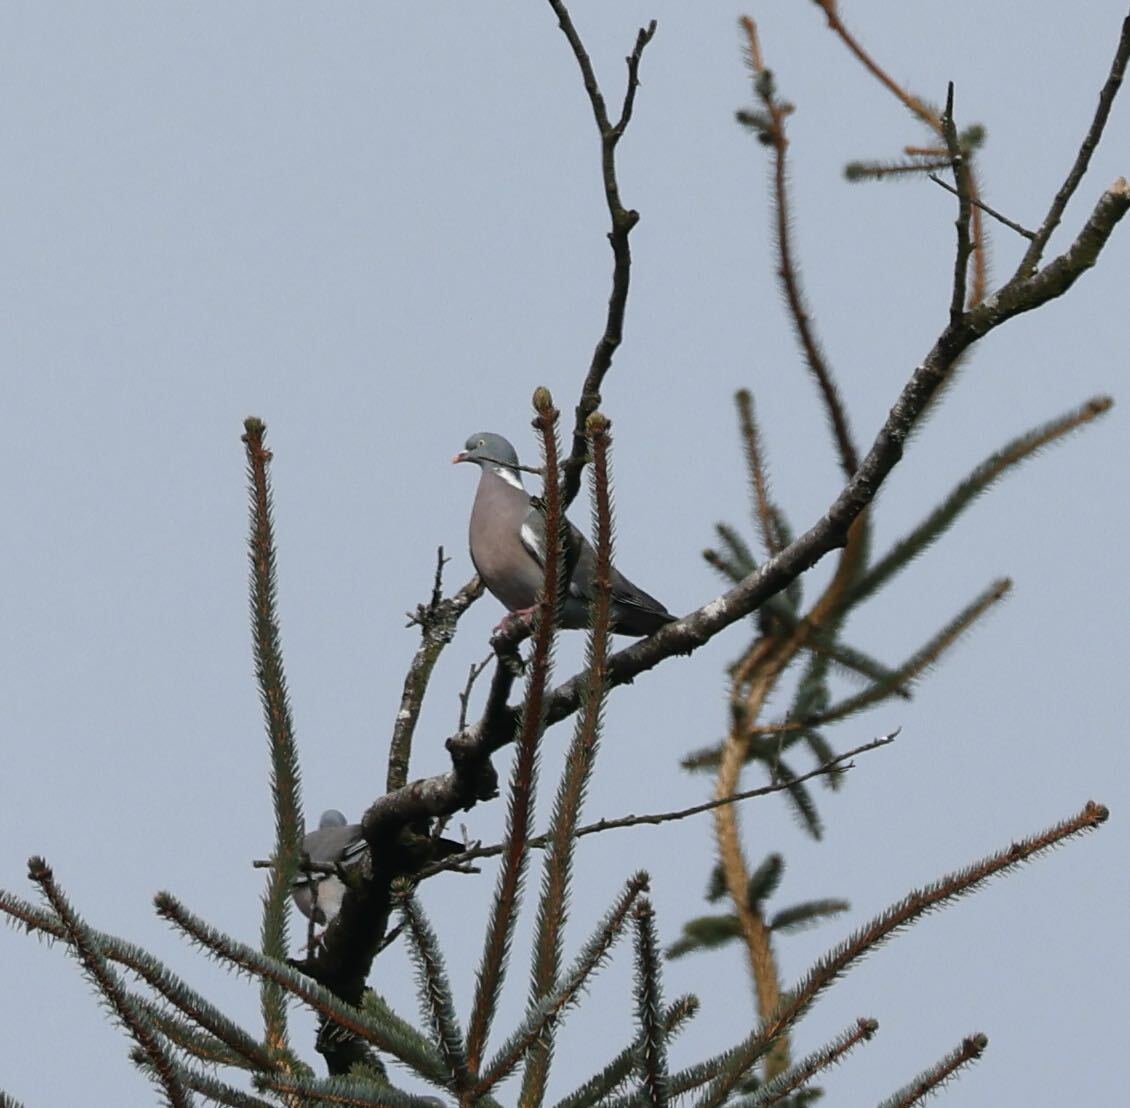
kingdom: Animalia
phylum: Chordata
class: Aves
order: Columbiformes
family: Columbidae
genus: Columba
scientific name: Columba palumbus
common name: Common wood pigeon
